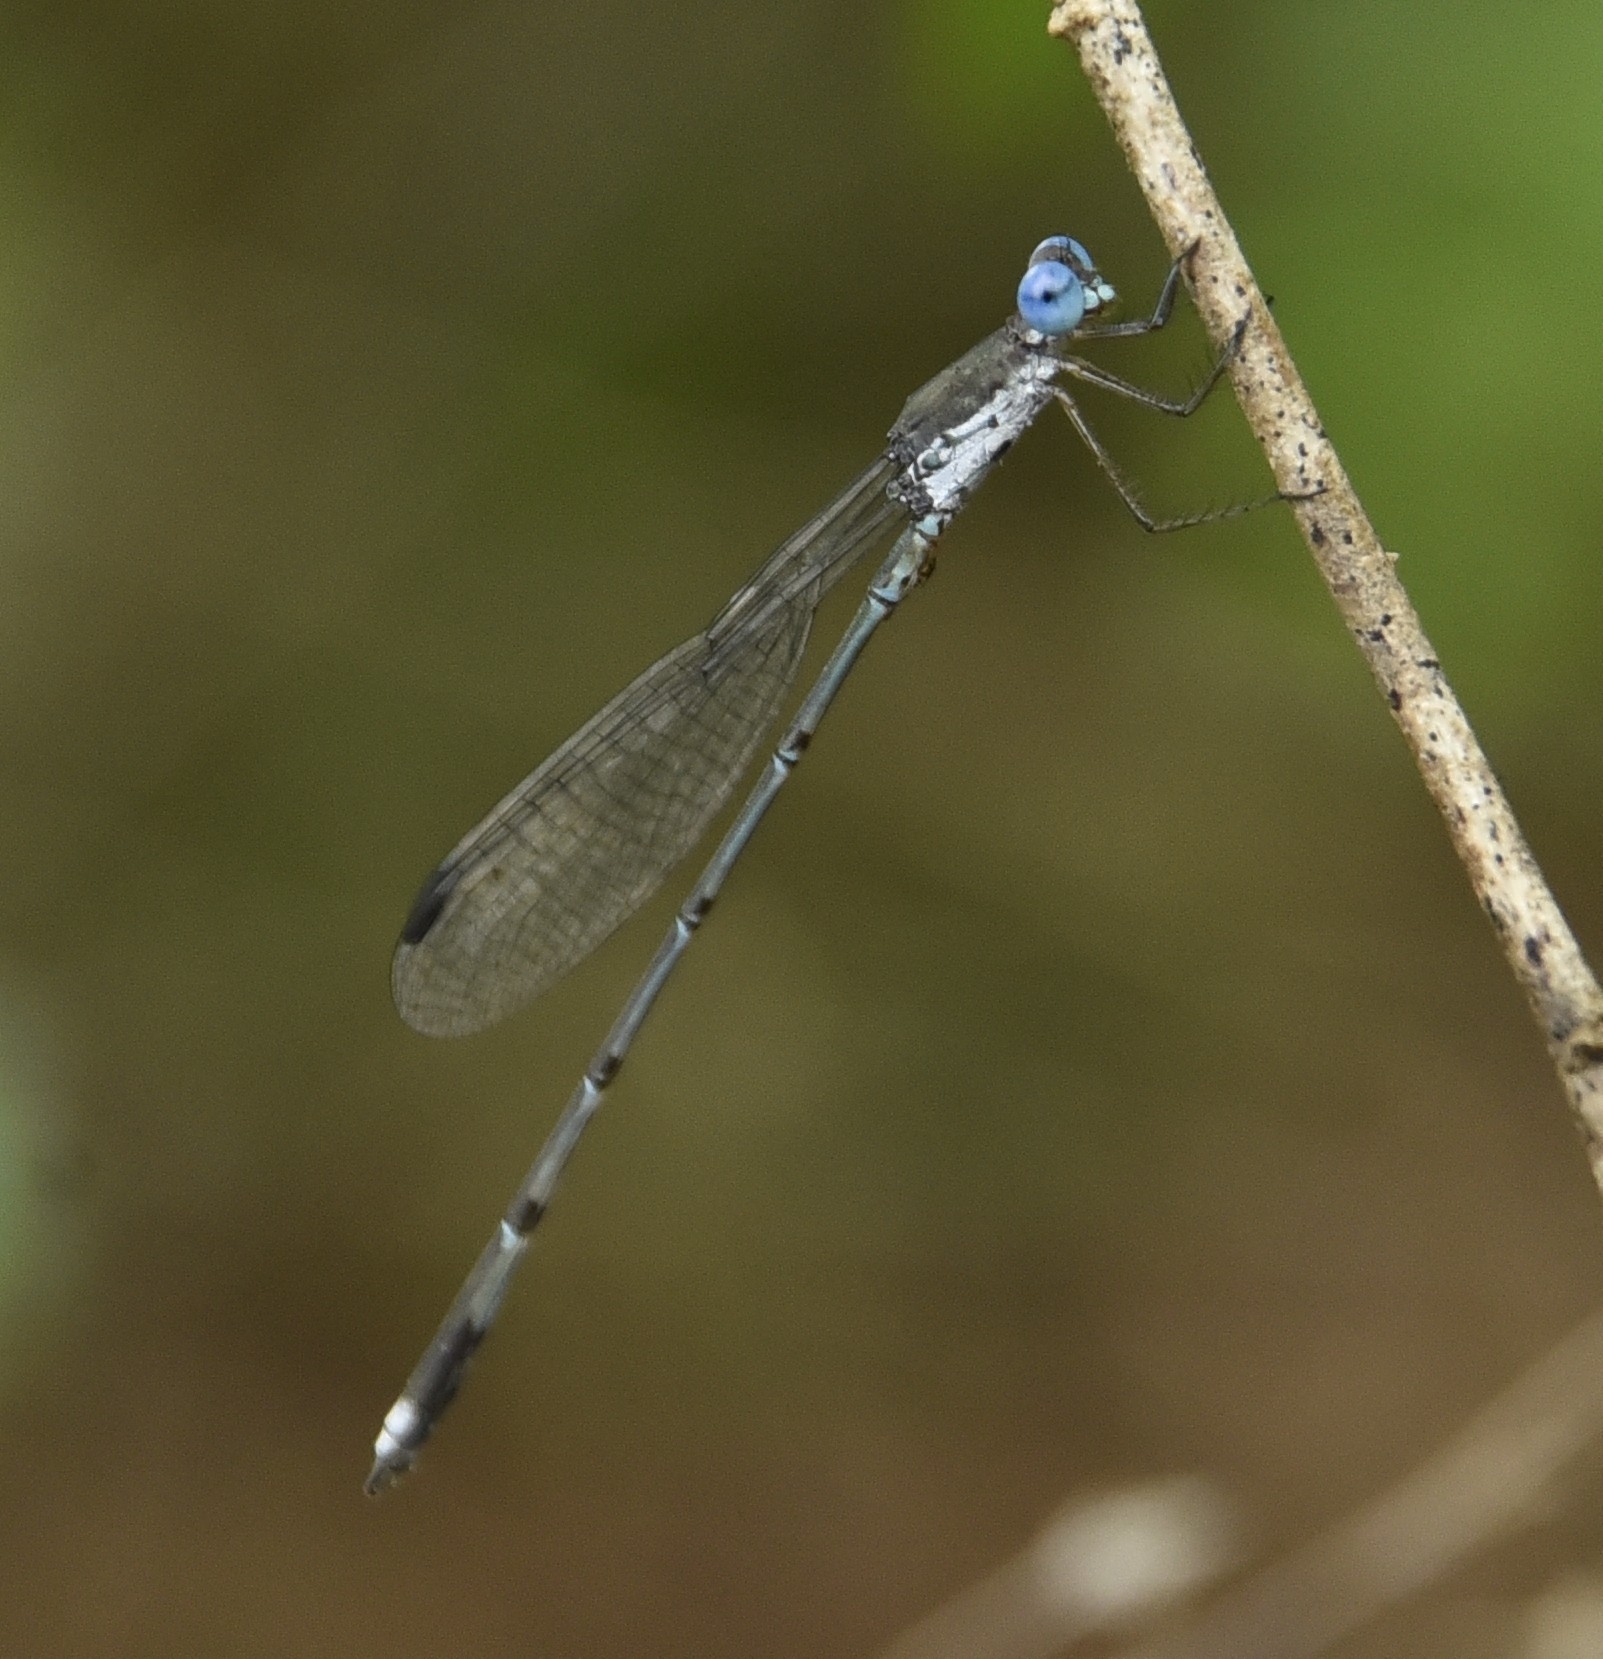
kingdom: Animalia
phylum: Arthropoda
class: Insecta
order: Odonata
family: Lestidae
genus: Lestes
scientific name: Lestes malabaricus
